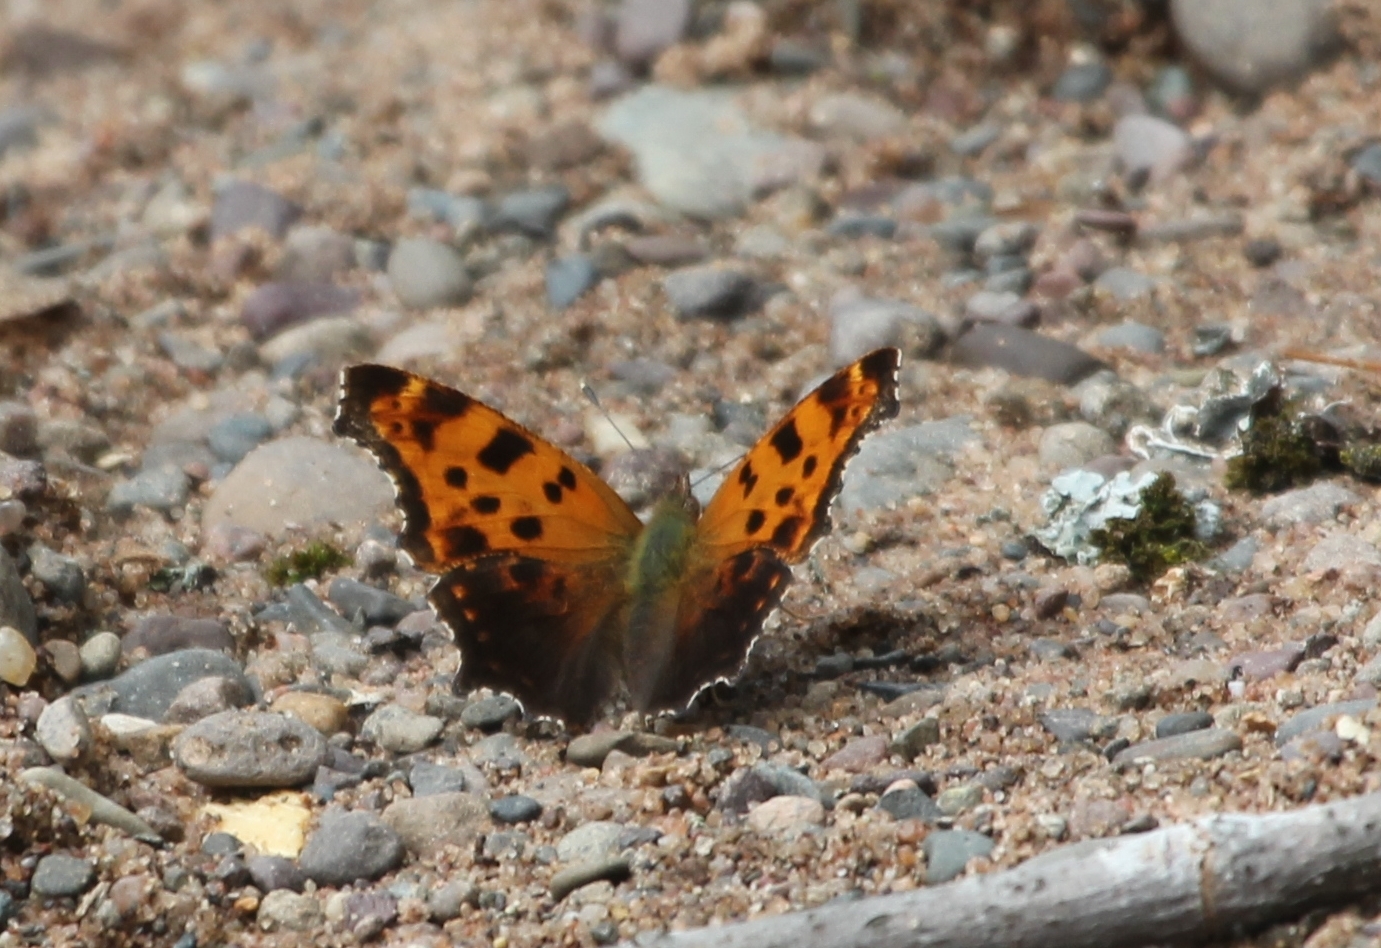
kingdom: Animalia
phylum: Arthropoda
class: Insecta
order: Lepidoptera
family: Nymphalidae
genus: Polygonia
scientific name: Polygonia comma
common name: Eastern comma
